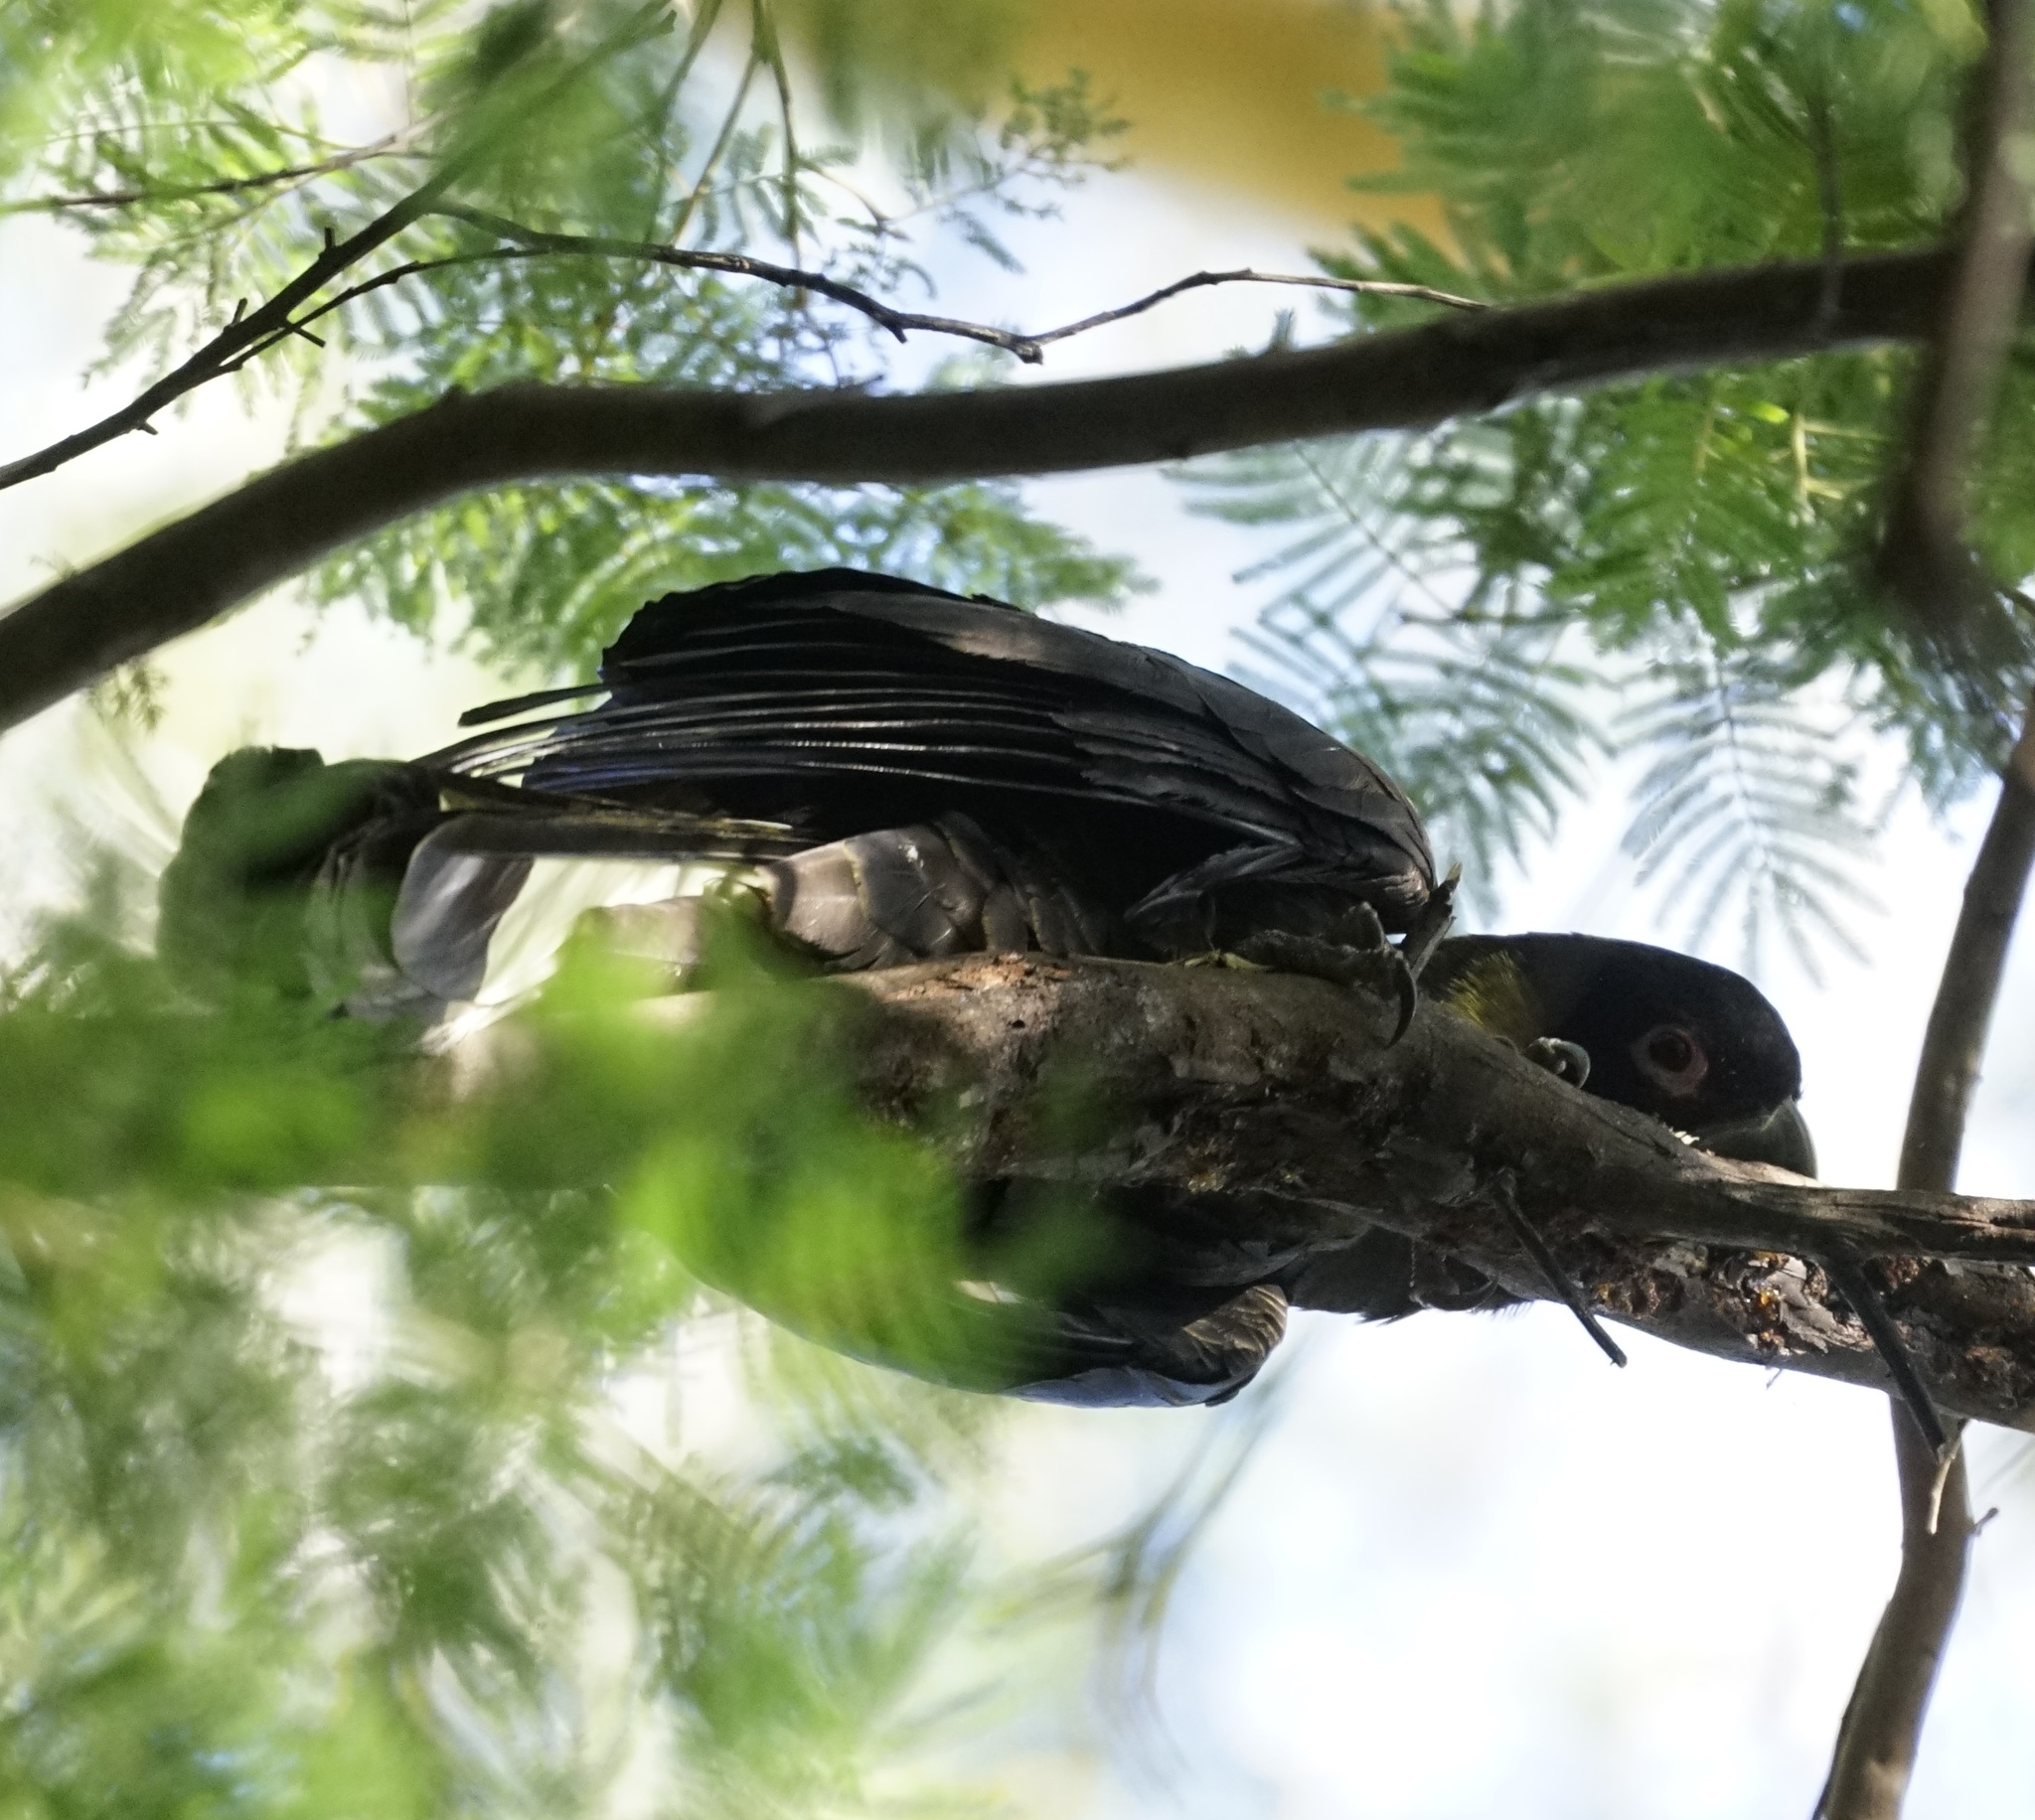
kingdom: Animalia
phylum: Chordata
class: Aves
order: Psittaciformes
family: Cacatuidae
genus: Zanda
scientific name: Zanda funerea
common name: Yellow-tailed black-cockatoo
